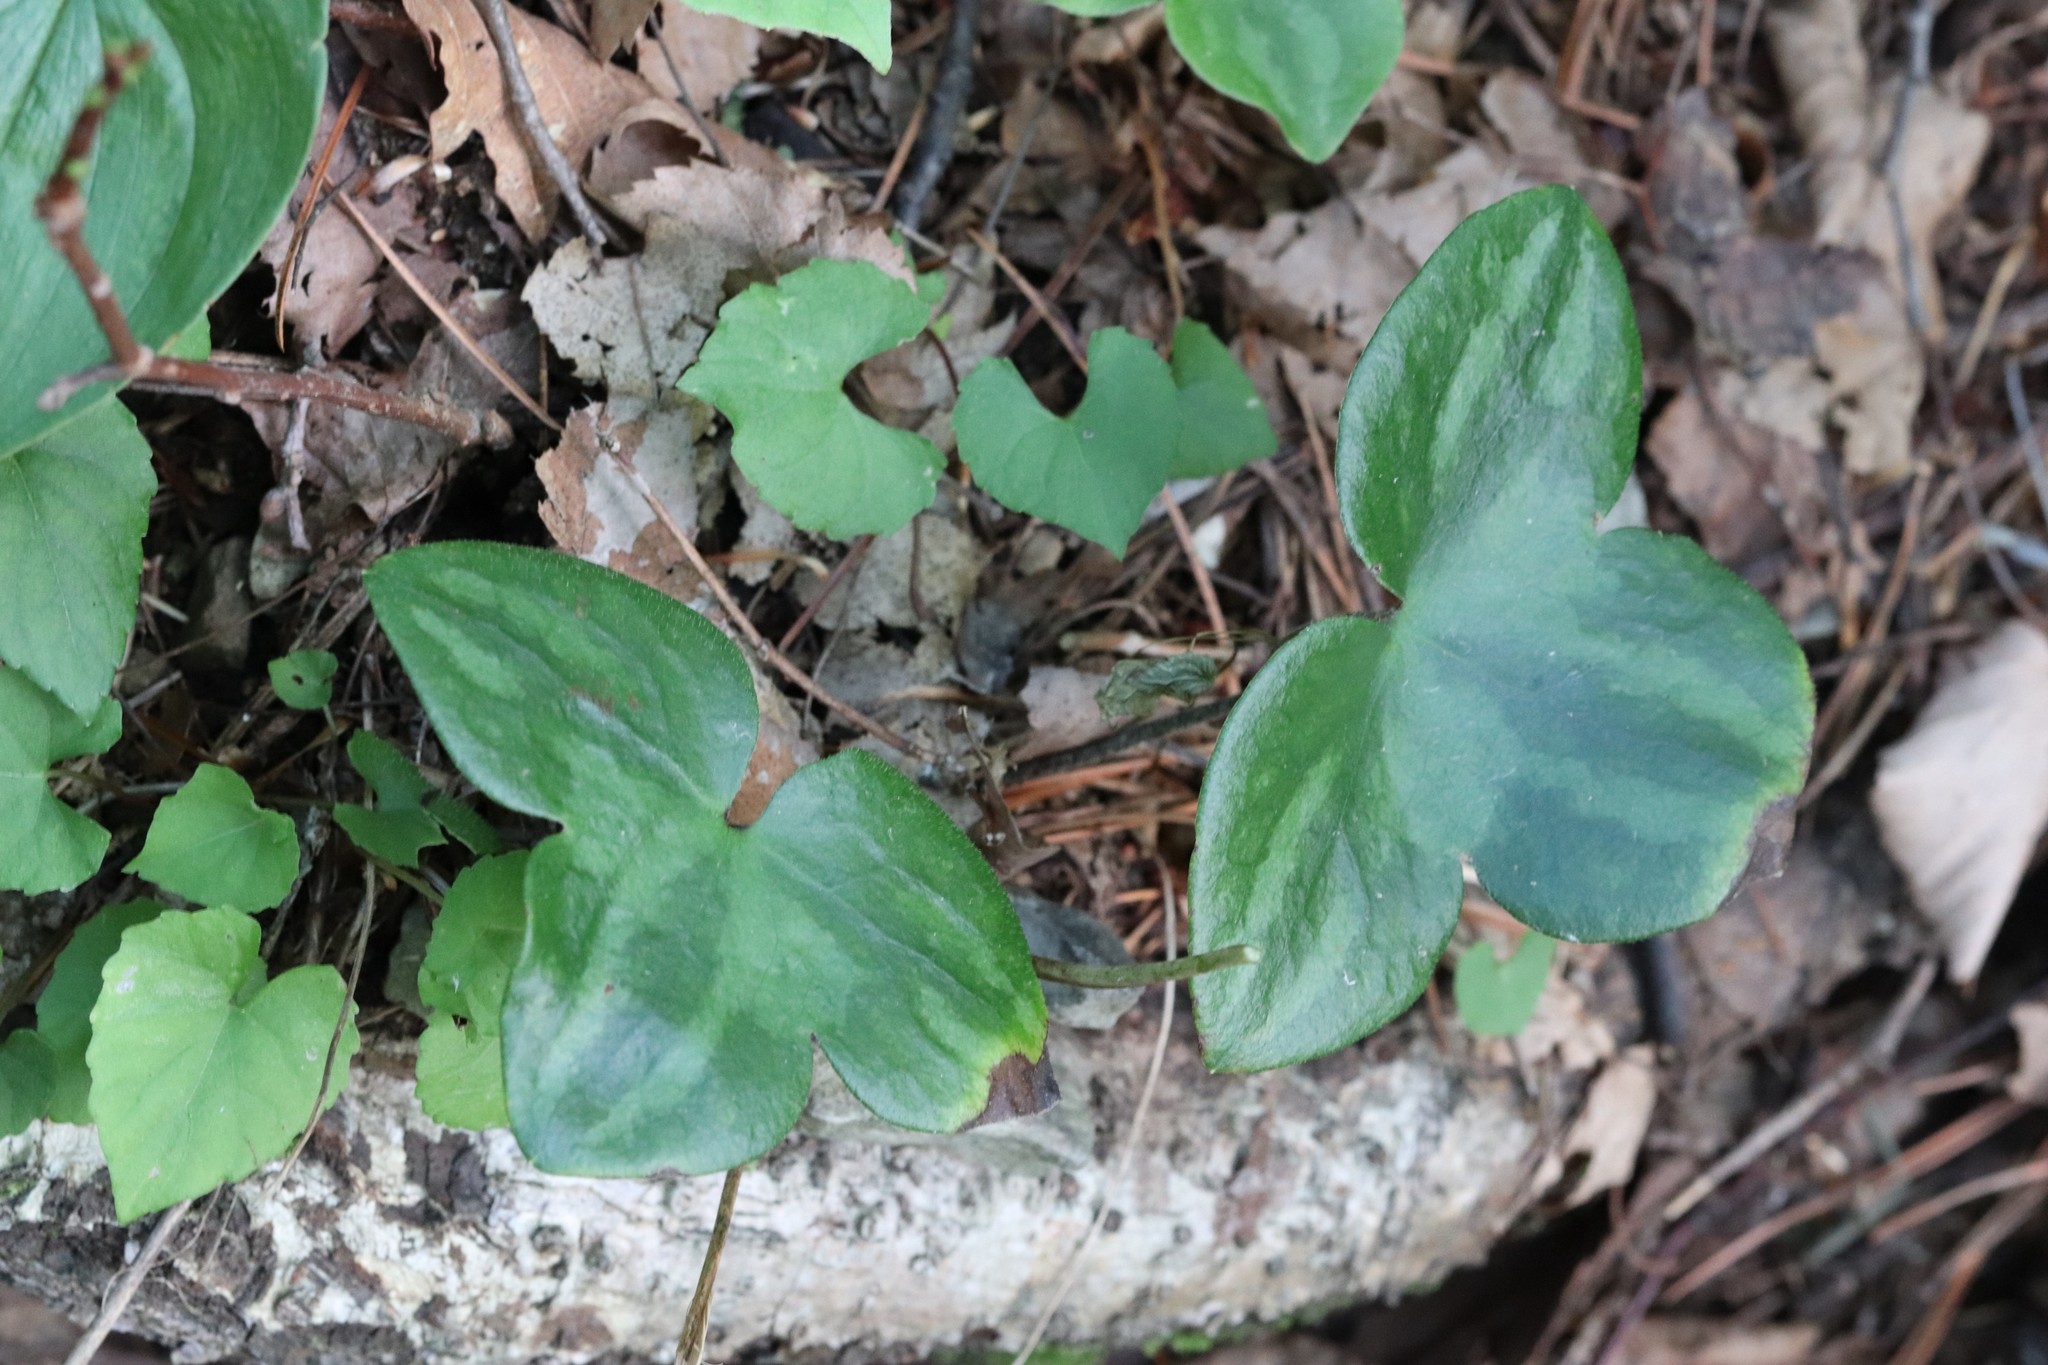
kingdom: Plantae
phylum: Tracheophyta
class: Magnoliopsida
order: Ranunculales
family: Ranunculaceae
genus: Hepatica
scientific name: Hepatica asiatica
